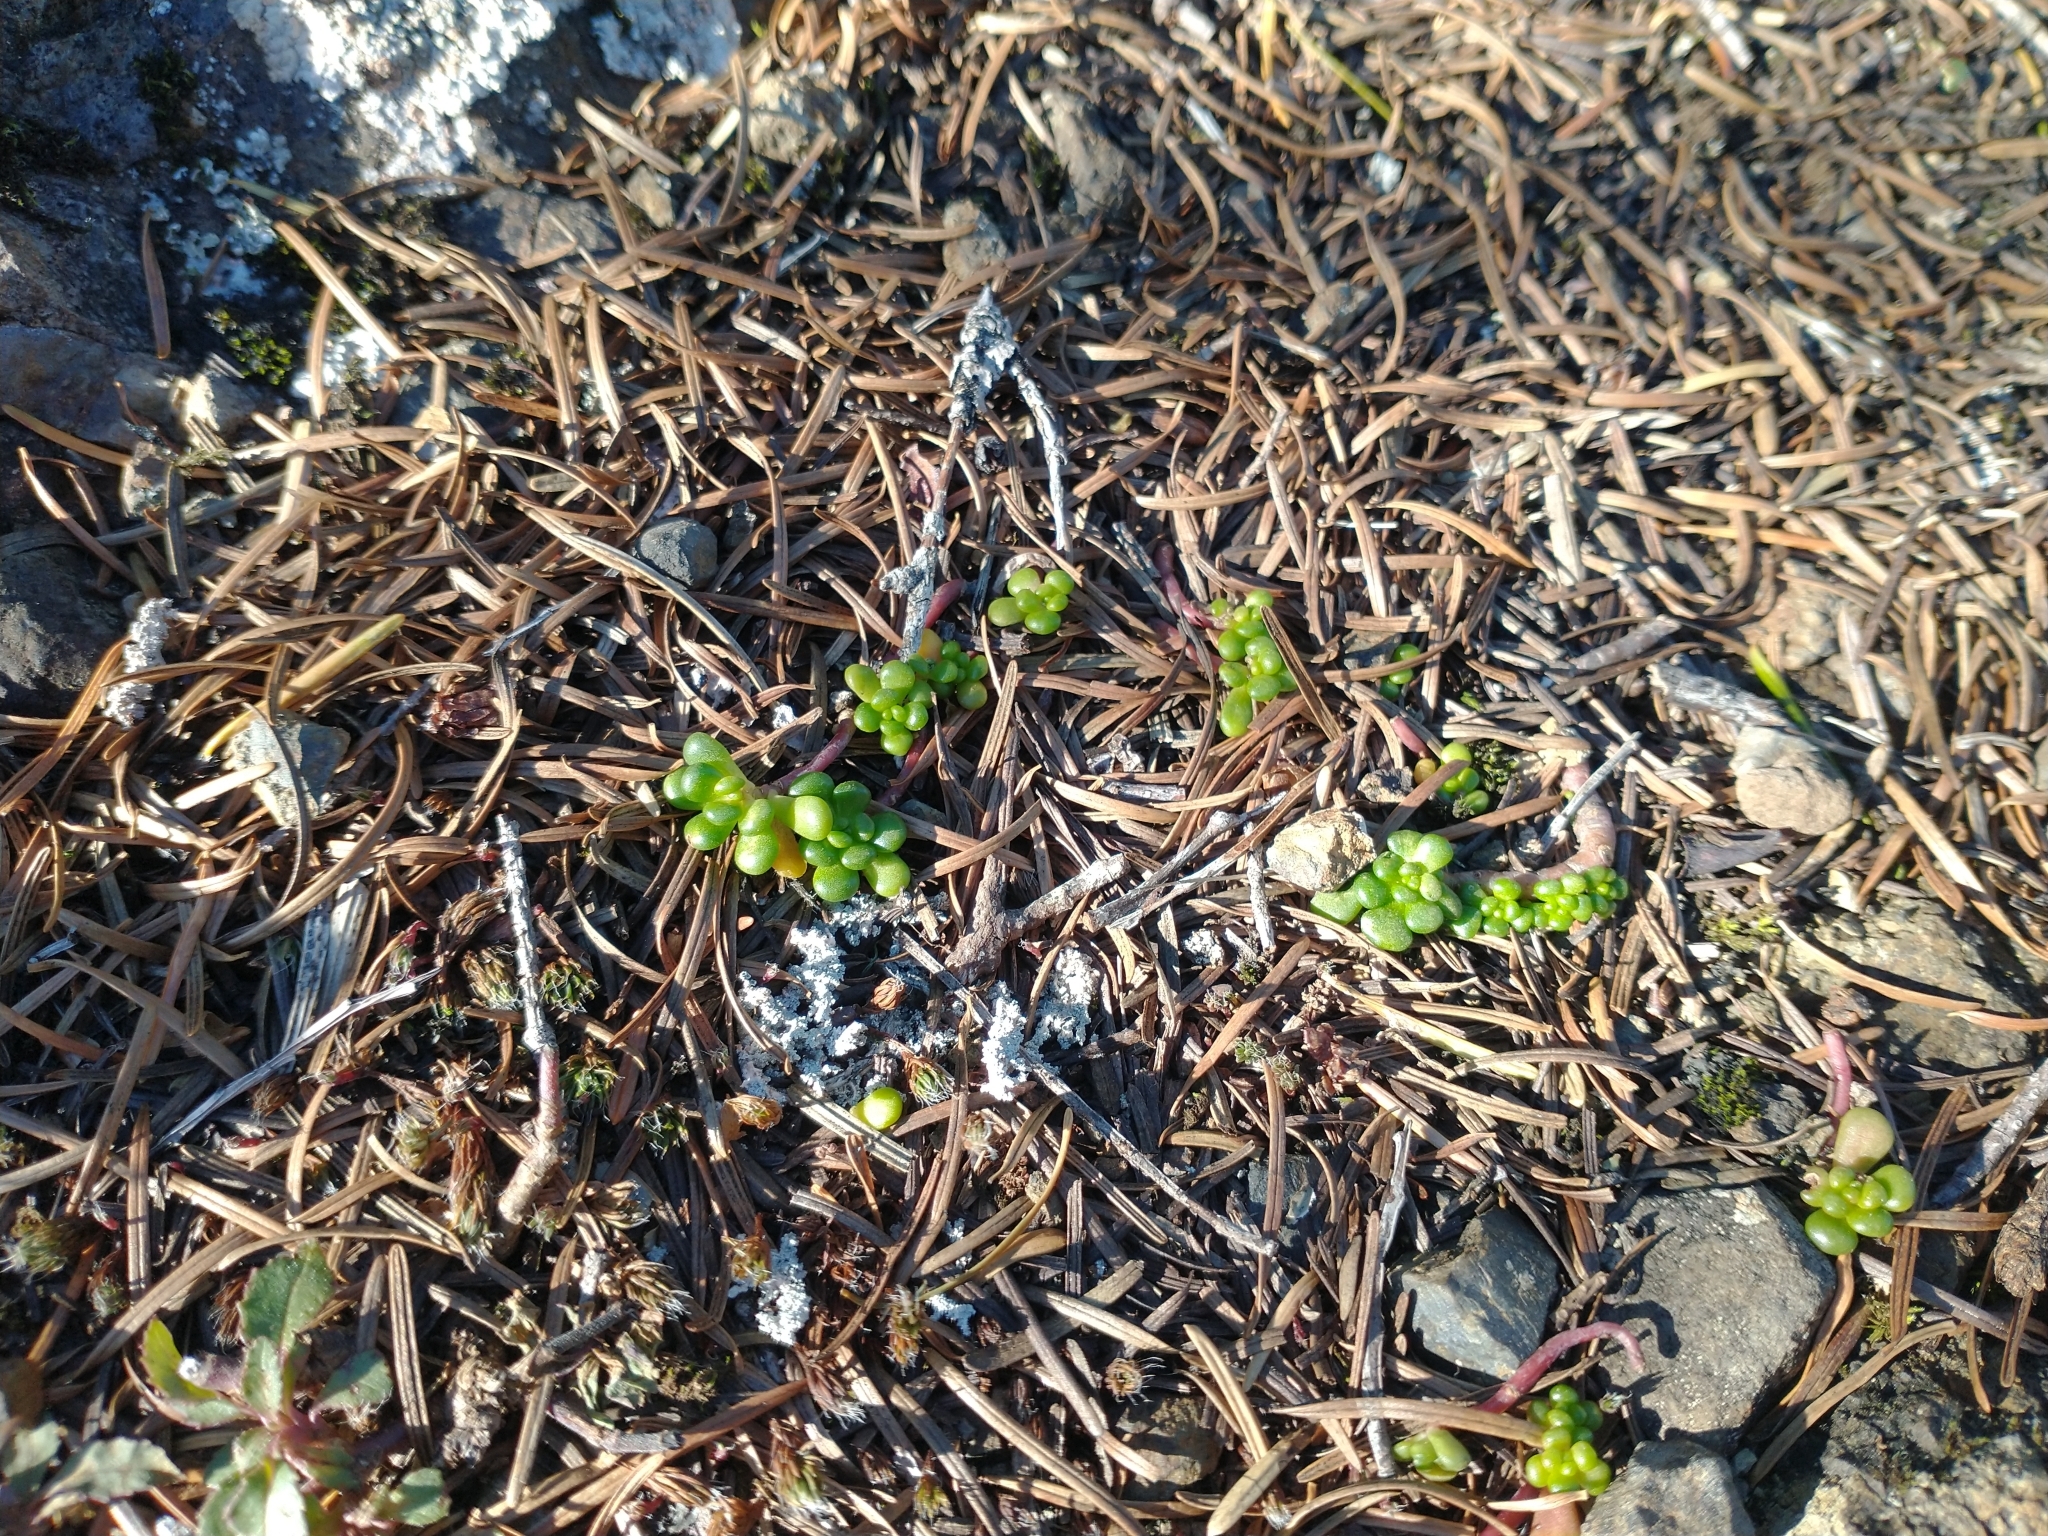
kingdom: Plantae
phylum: Tracheophyta
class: Magnoliopsida
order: Saxifragales
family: Crassulaceae
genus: Sedum
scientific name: Sedum oreganum
